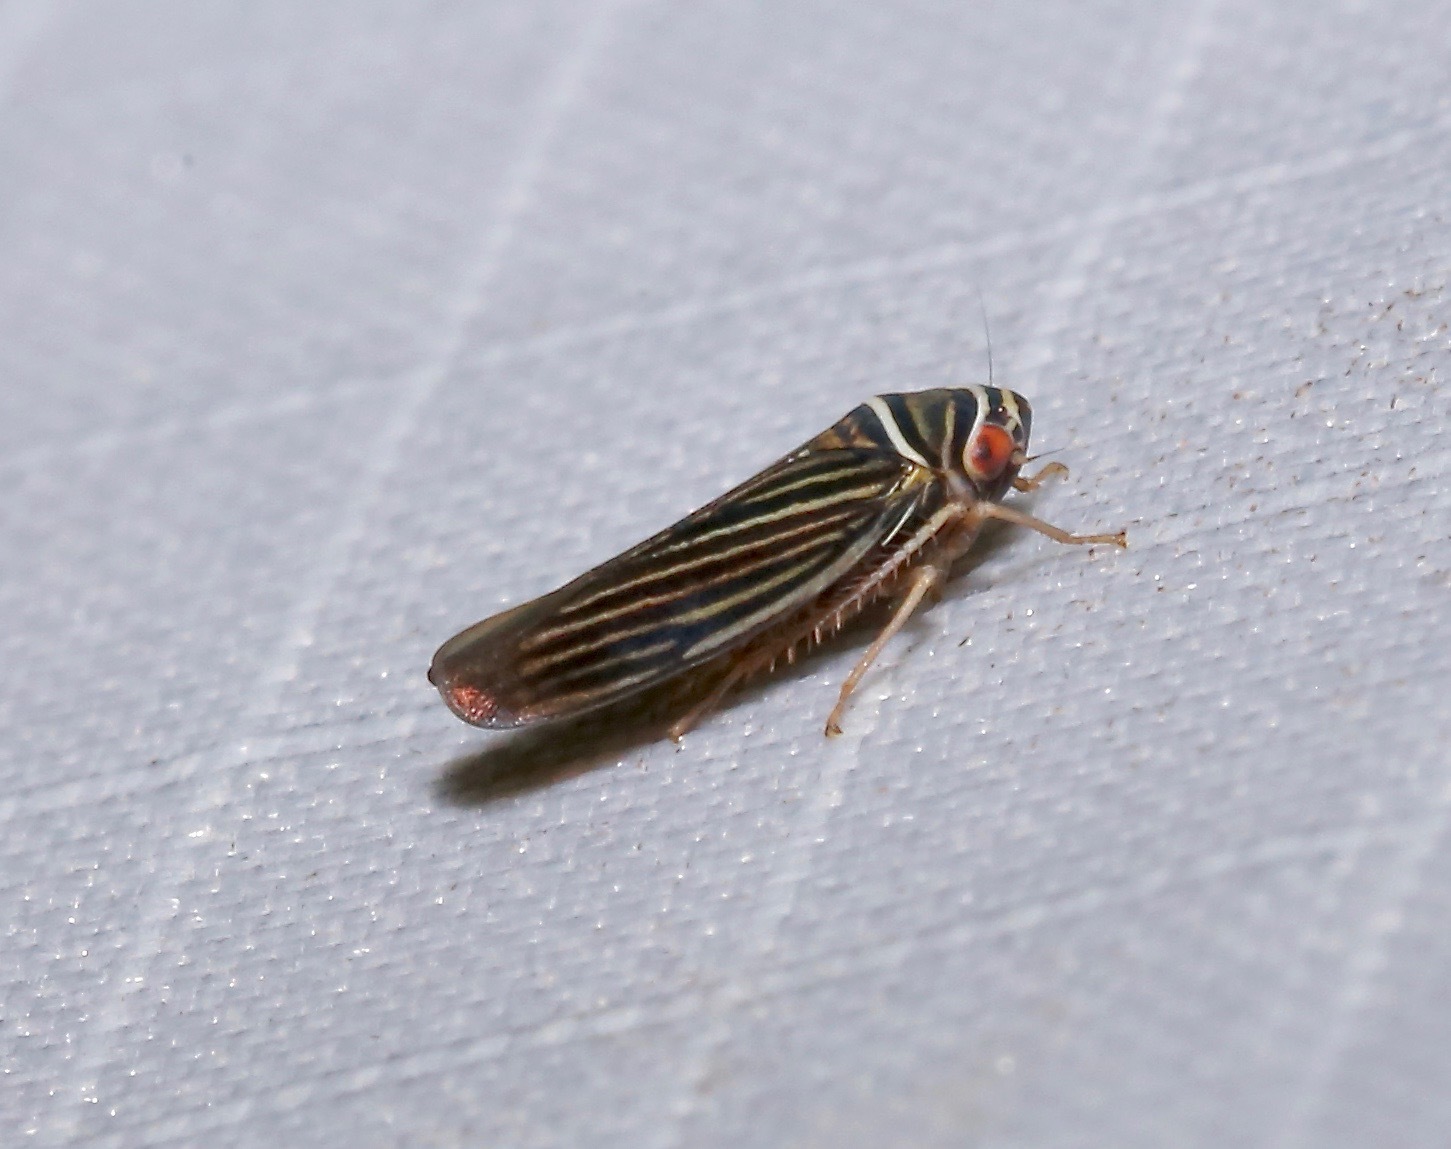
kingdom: Animalia
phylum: Arthropoda
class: Insecta
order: Hemiptera
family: Cicadellidae
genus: Tylozygus
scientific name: Tylozygus bifidus
